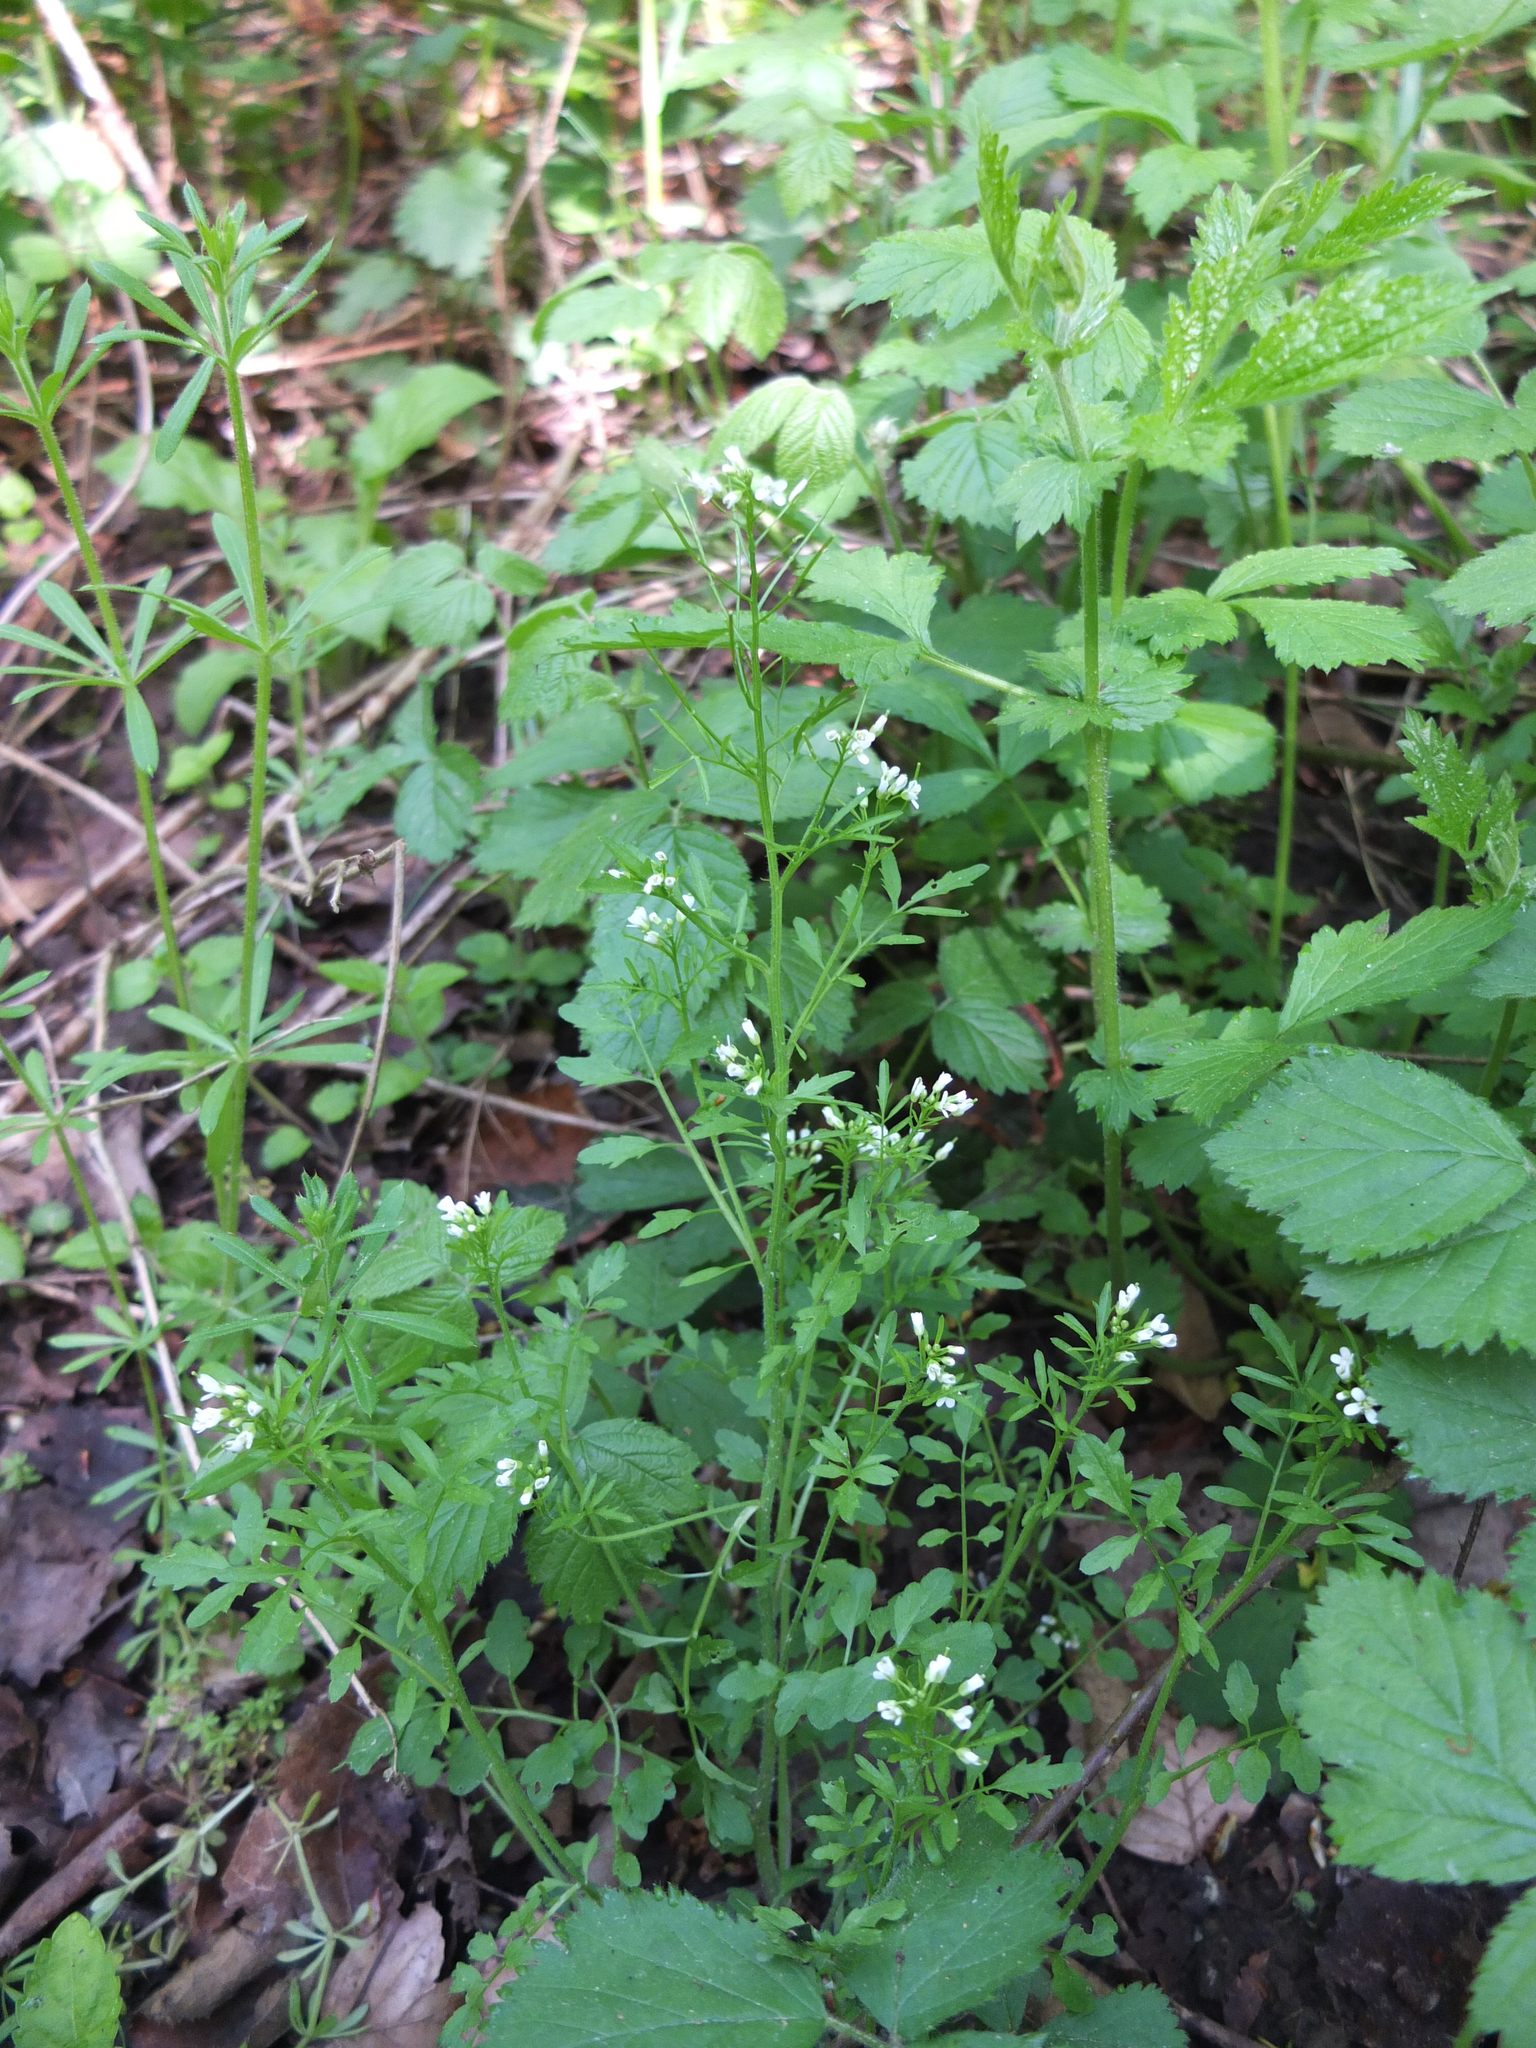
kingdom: Plantae
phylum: Tracheophyta
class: Magnoliopsida
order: Brassicales
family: Brassicaceae
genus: Cardamine
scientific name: Cardamine flexuosa
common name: Woodland bittercress
